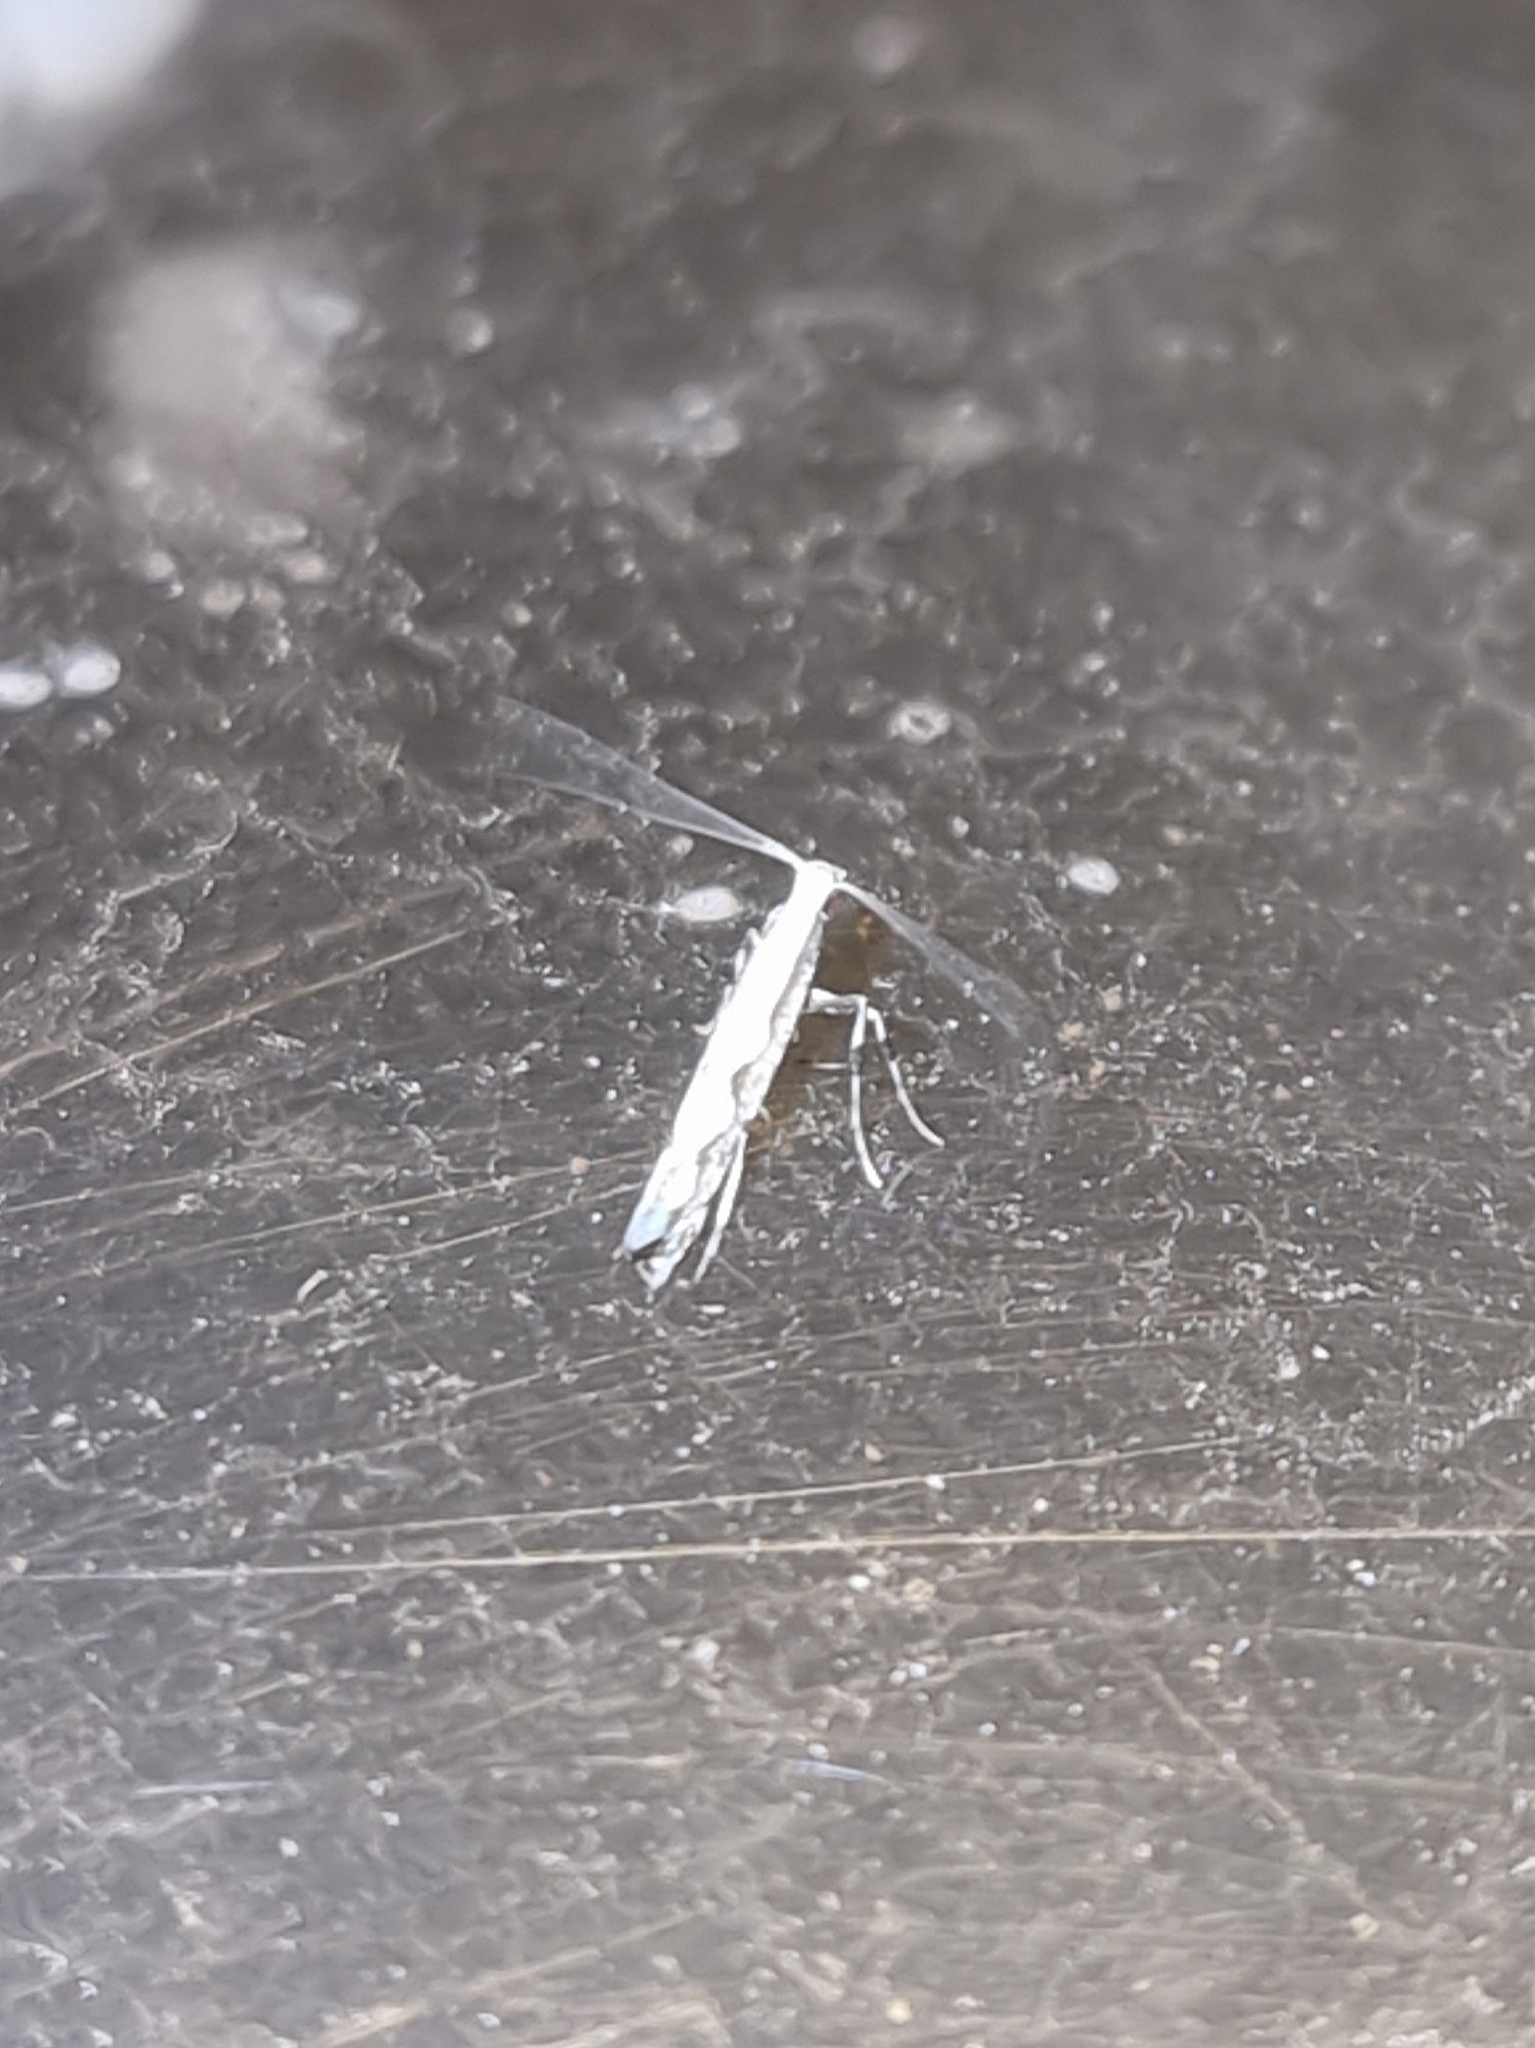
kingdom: Animalia
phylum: Arthropoda
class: Insecta
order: Lepidoptera
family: Gracillariidae
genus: Dialectica
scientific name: Dialectica scalariella
